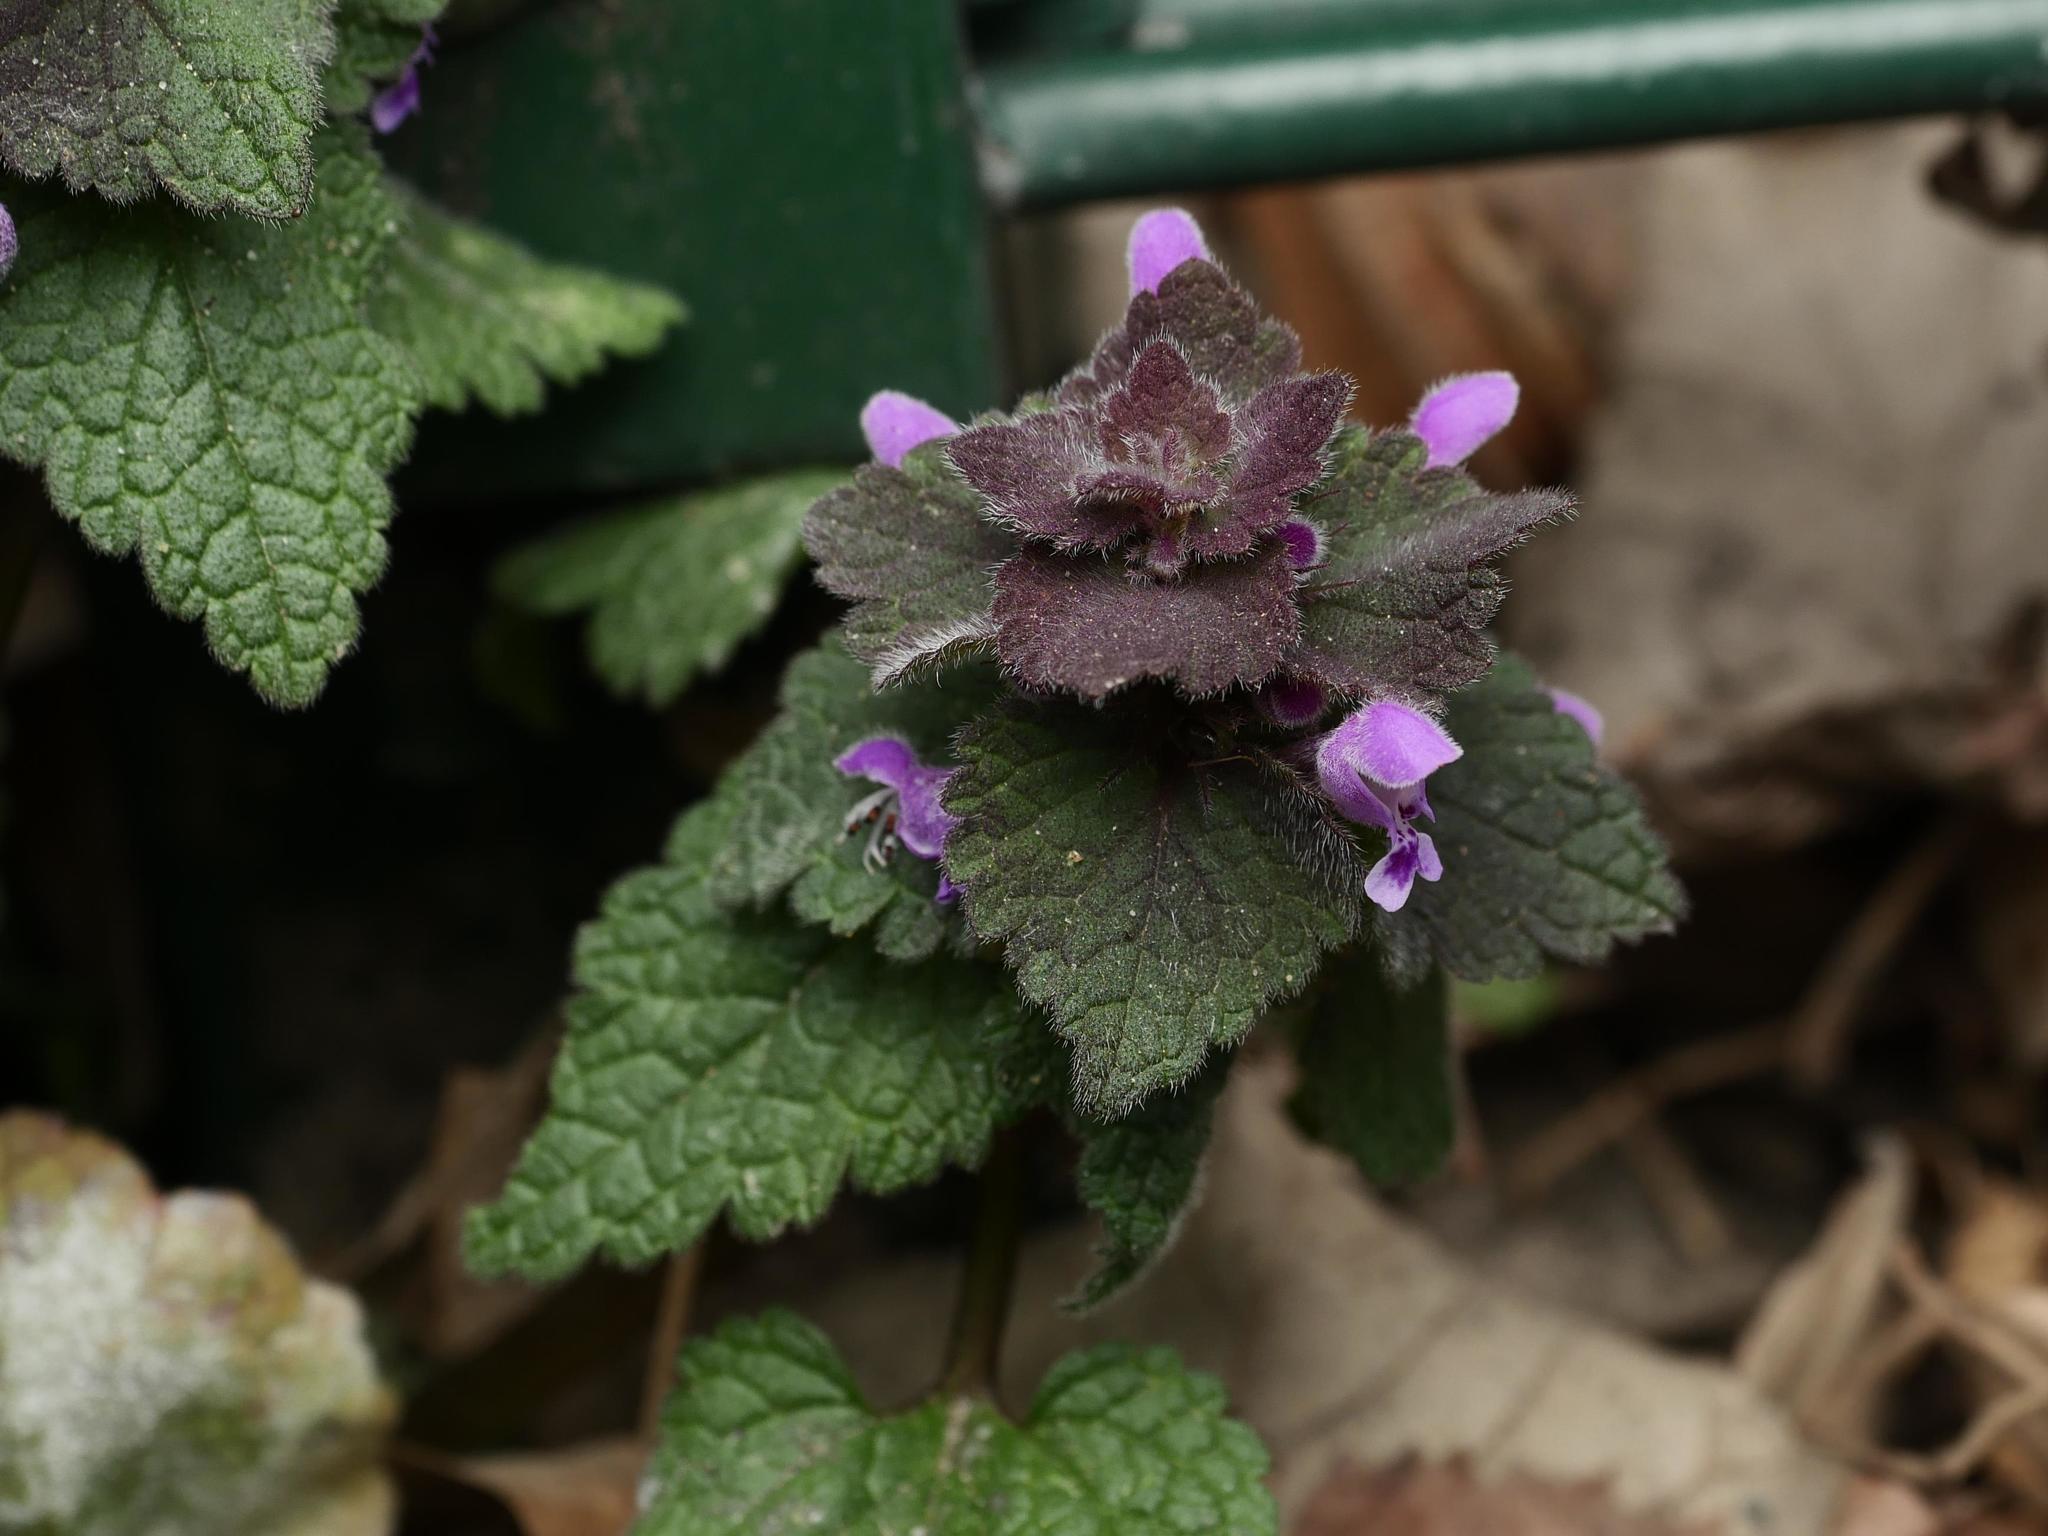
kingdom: Plantae
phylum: Tracheophyta
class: Magnoliopsida
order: Lamiales
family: Lamiaceae
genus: Lamium
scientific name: Lamium purpureum
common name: Red dead-nettle
